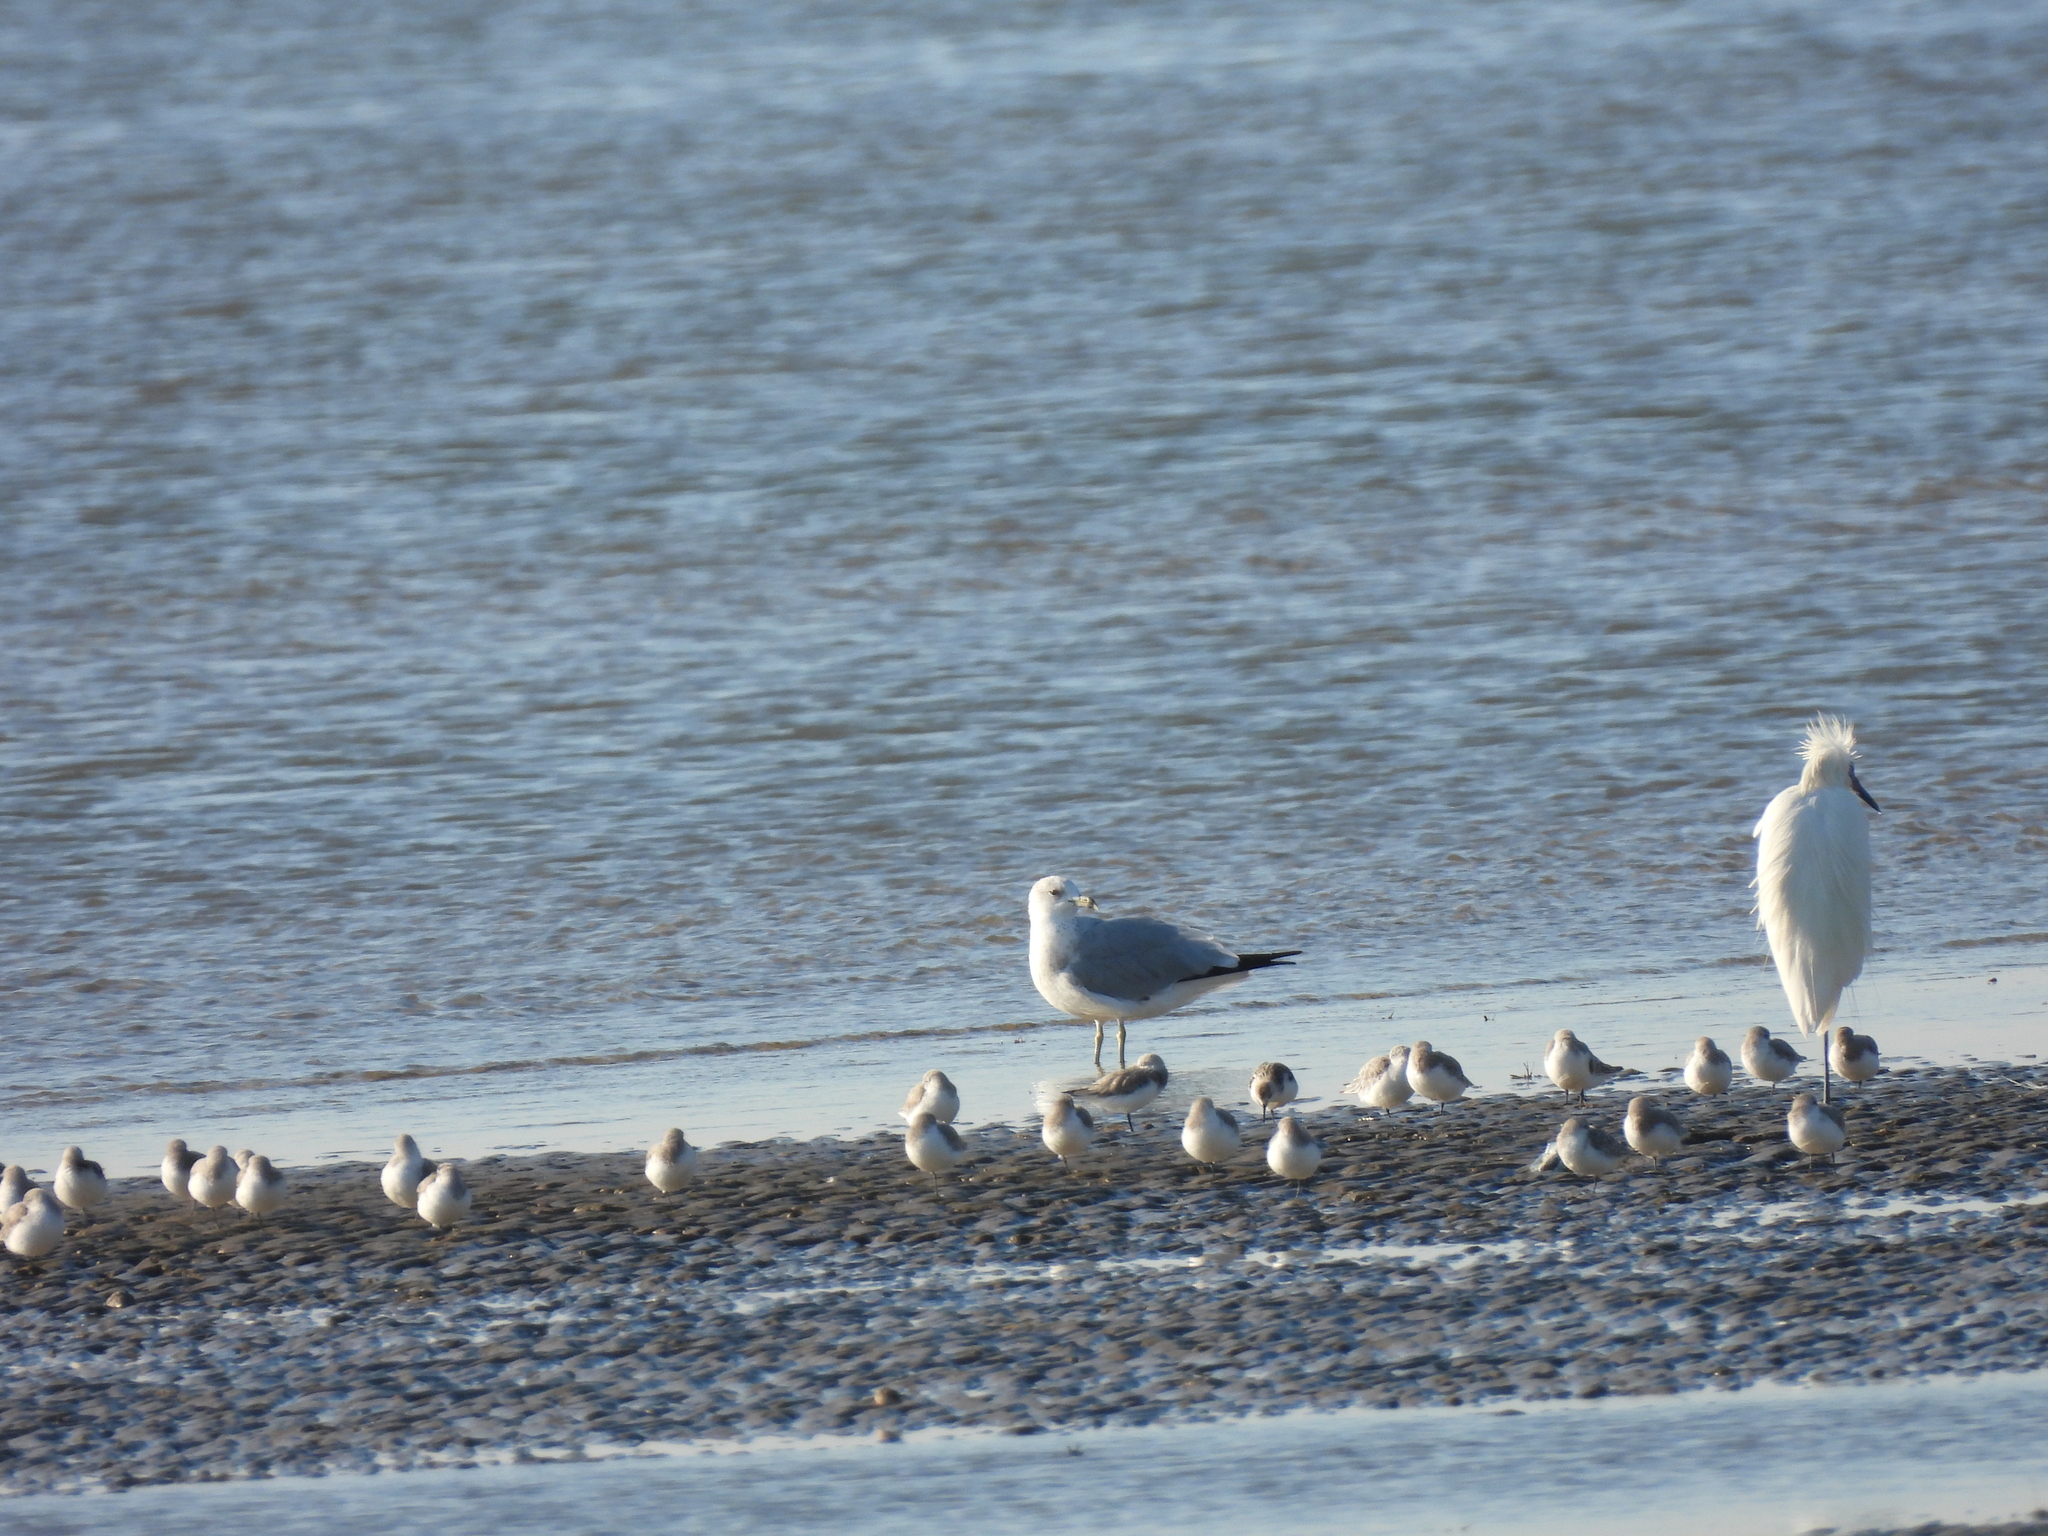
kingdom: Animalia
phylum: Chordata
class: Aves
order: Pelecaniformes
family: Ardeidae
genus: Egretta
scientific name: Egretta thula
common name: Snowy egret
